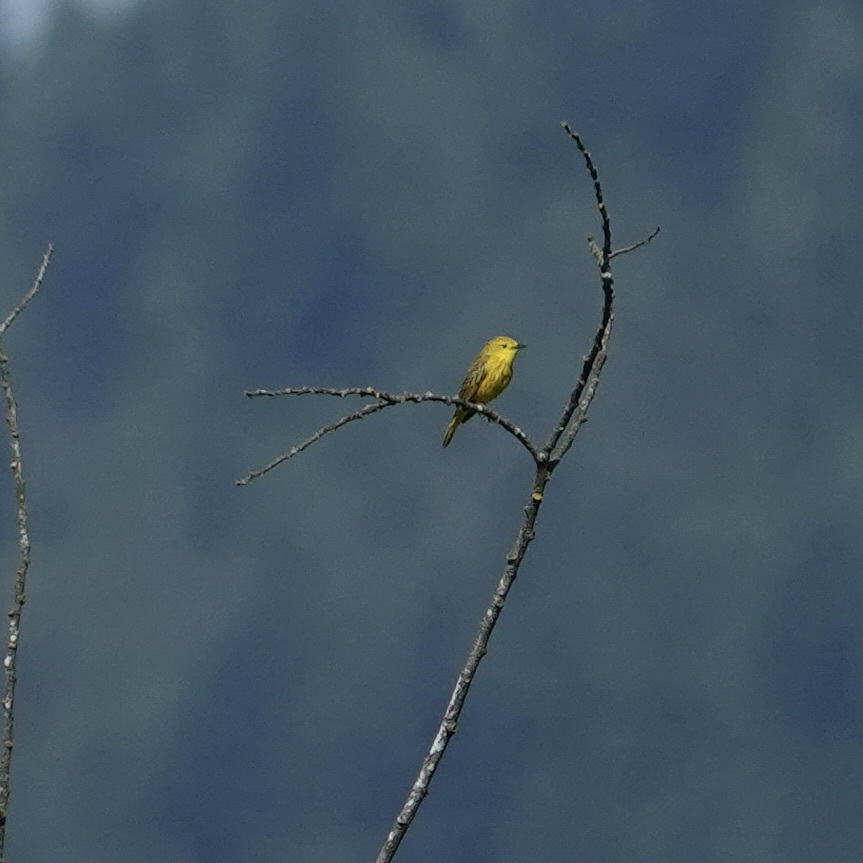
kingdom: Animalia
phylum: Chordata
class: Aves
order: Passeriformes
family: Parulidae
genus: Setophaga
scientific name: Setophaga petechia
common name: Yellow warbler
